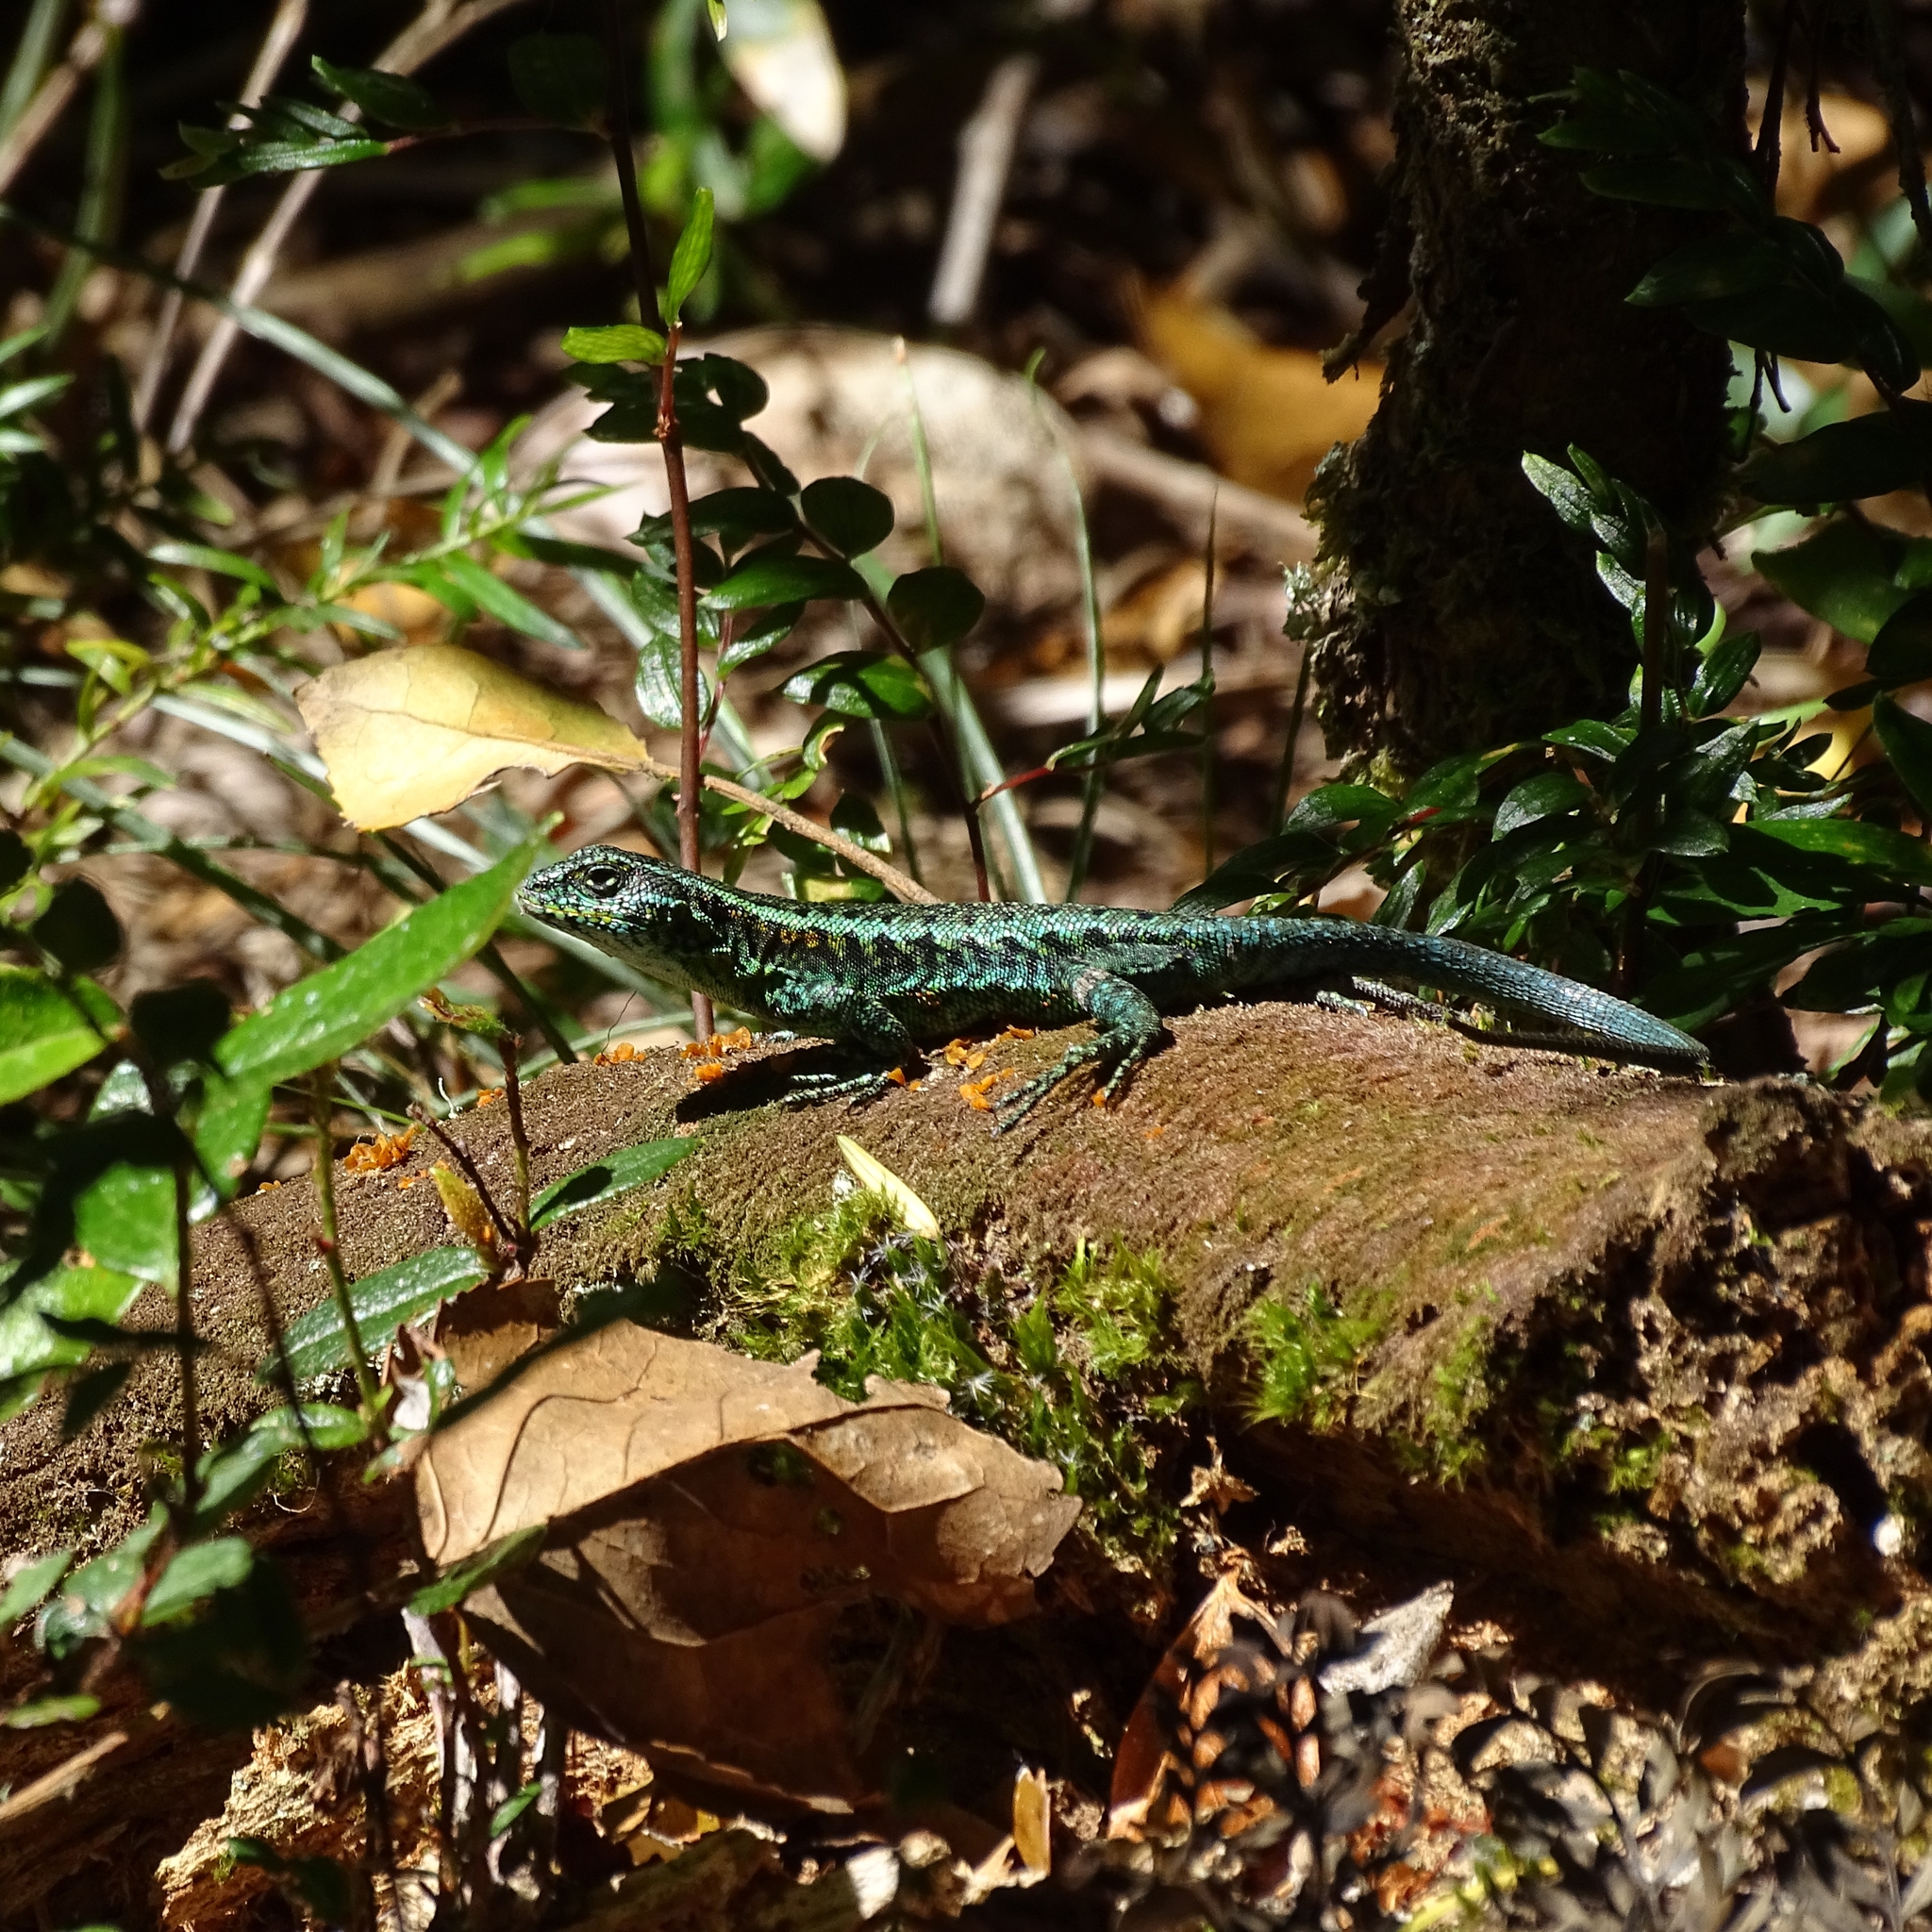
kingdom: Animalia
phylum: Chordata
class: Squamata
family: Liolaemidae
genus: Liolaemus
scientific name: Liolaemus pictus
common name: Painted tree iguana
